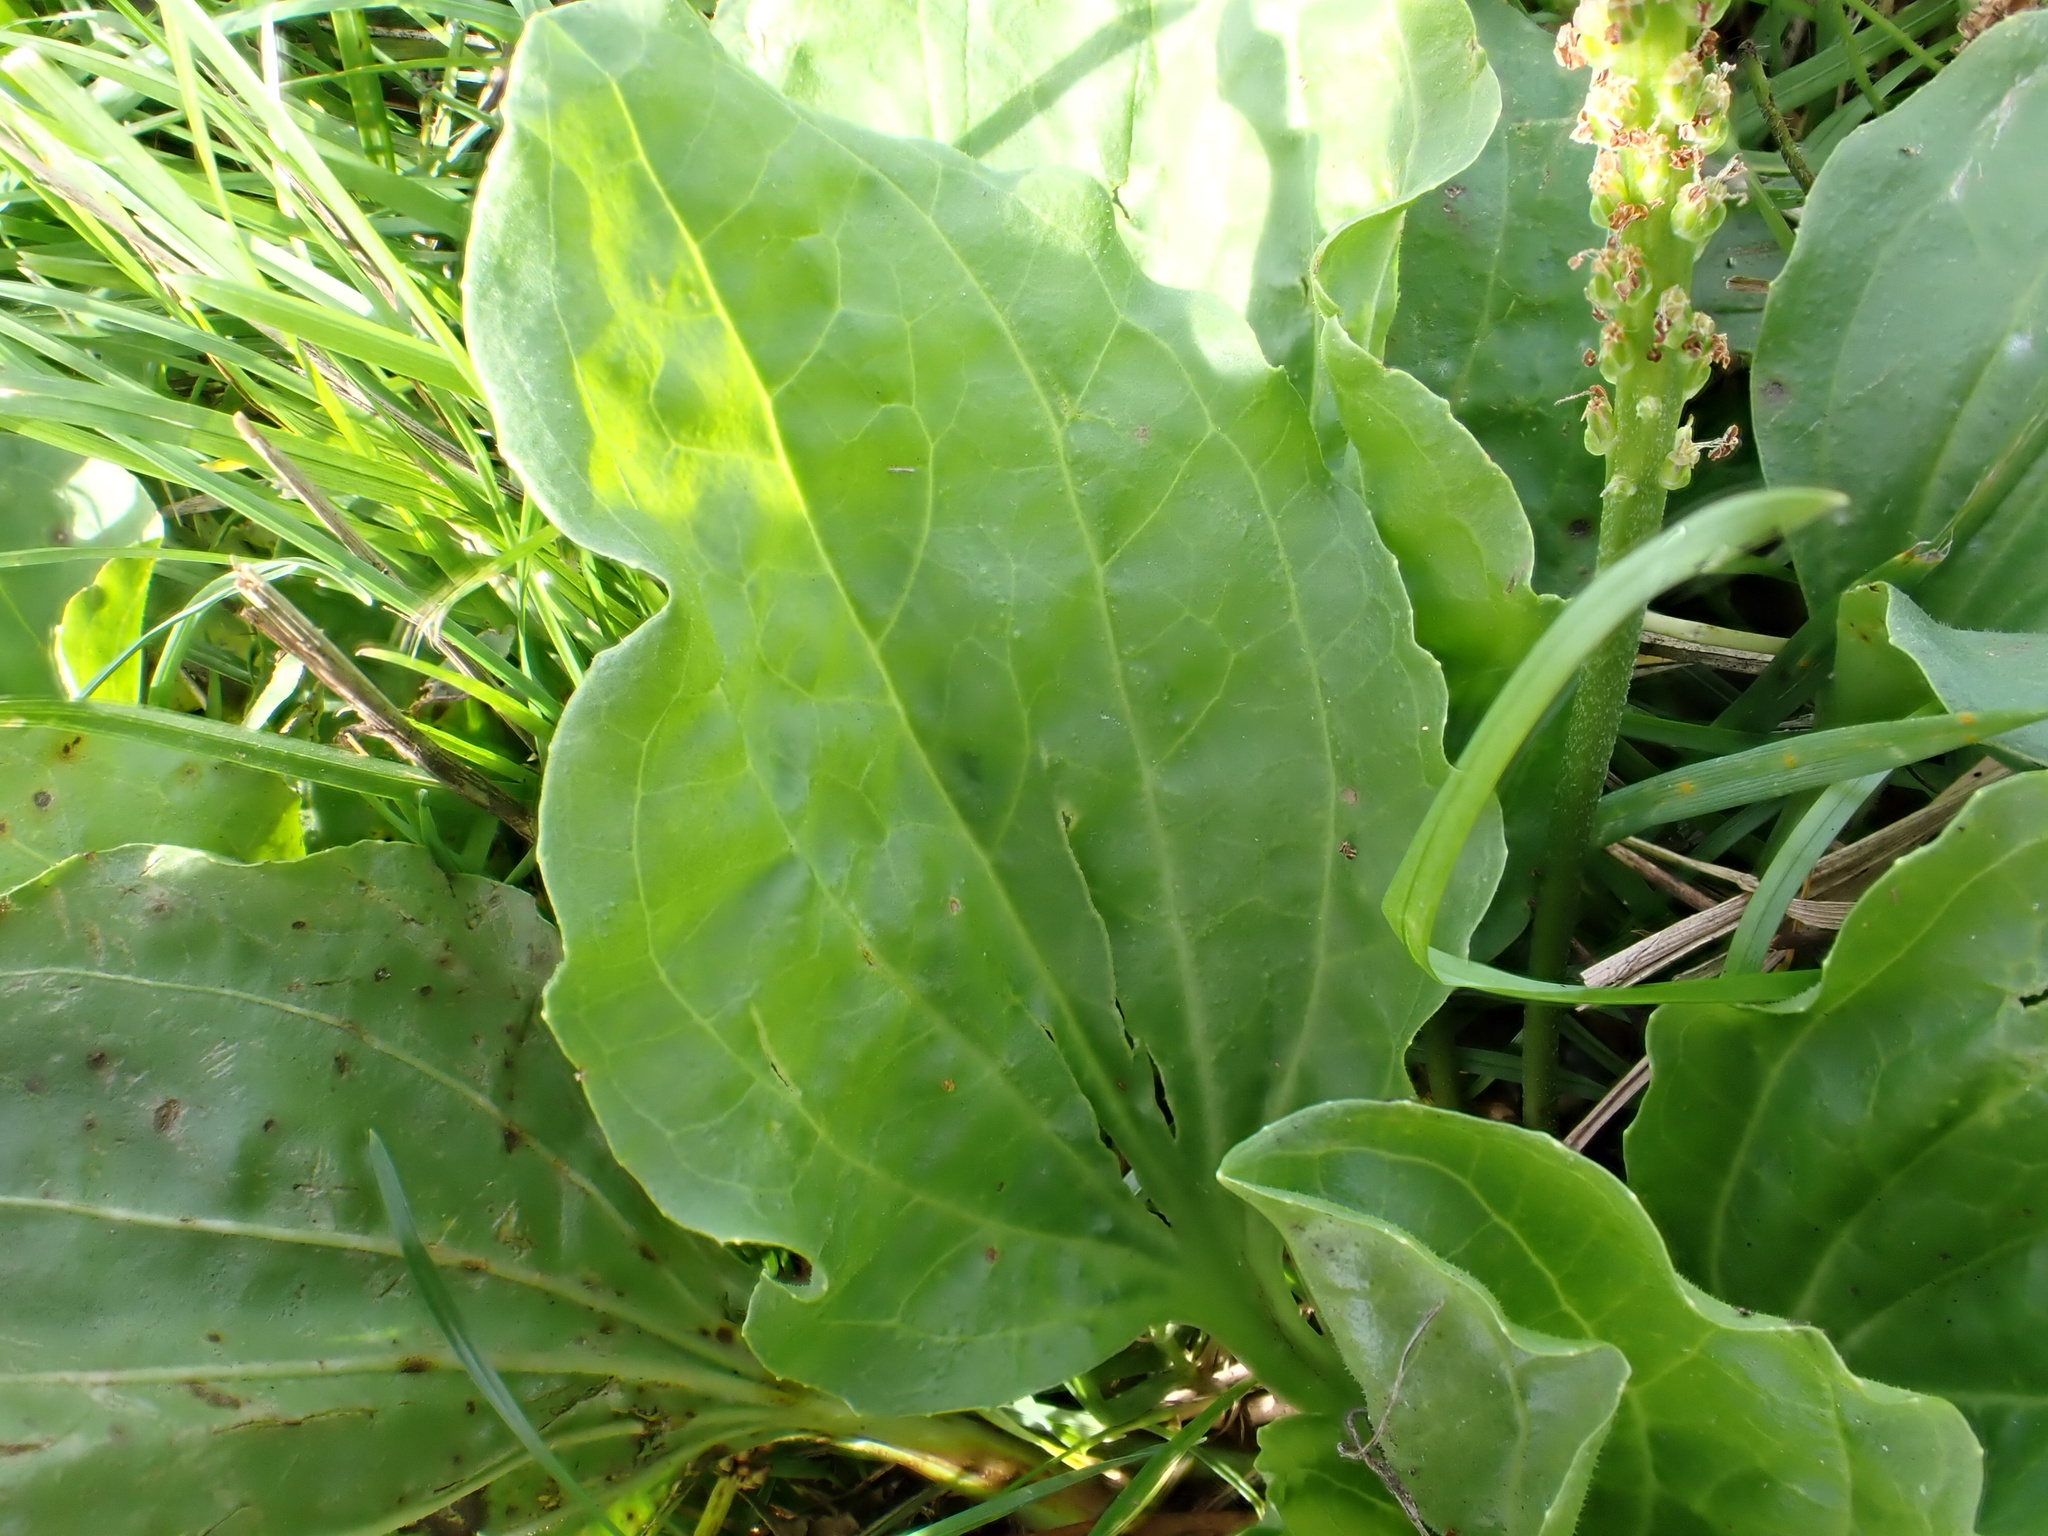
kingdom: Plantae
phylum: Tracheophyta
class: Magnoliopsida
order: Lamiales
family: Plantaginaceae
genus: Plantago
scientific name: Plantago major
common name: Common plantain
